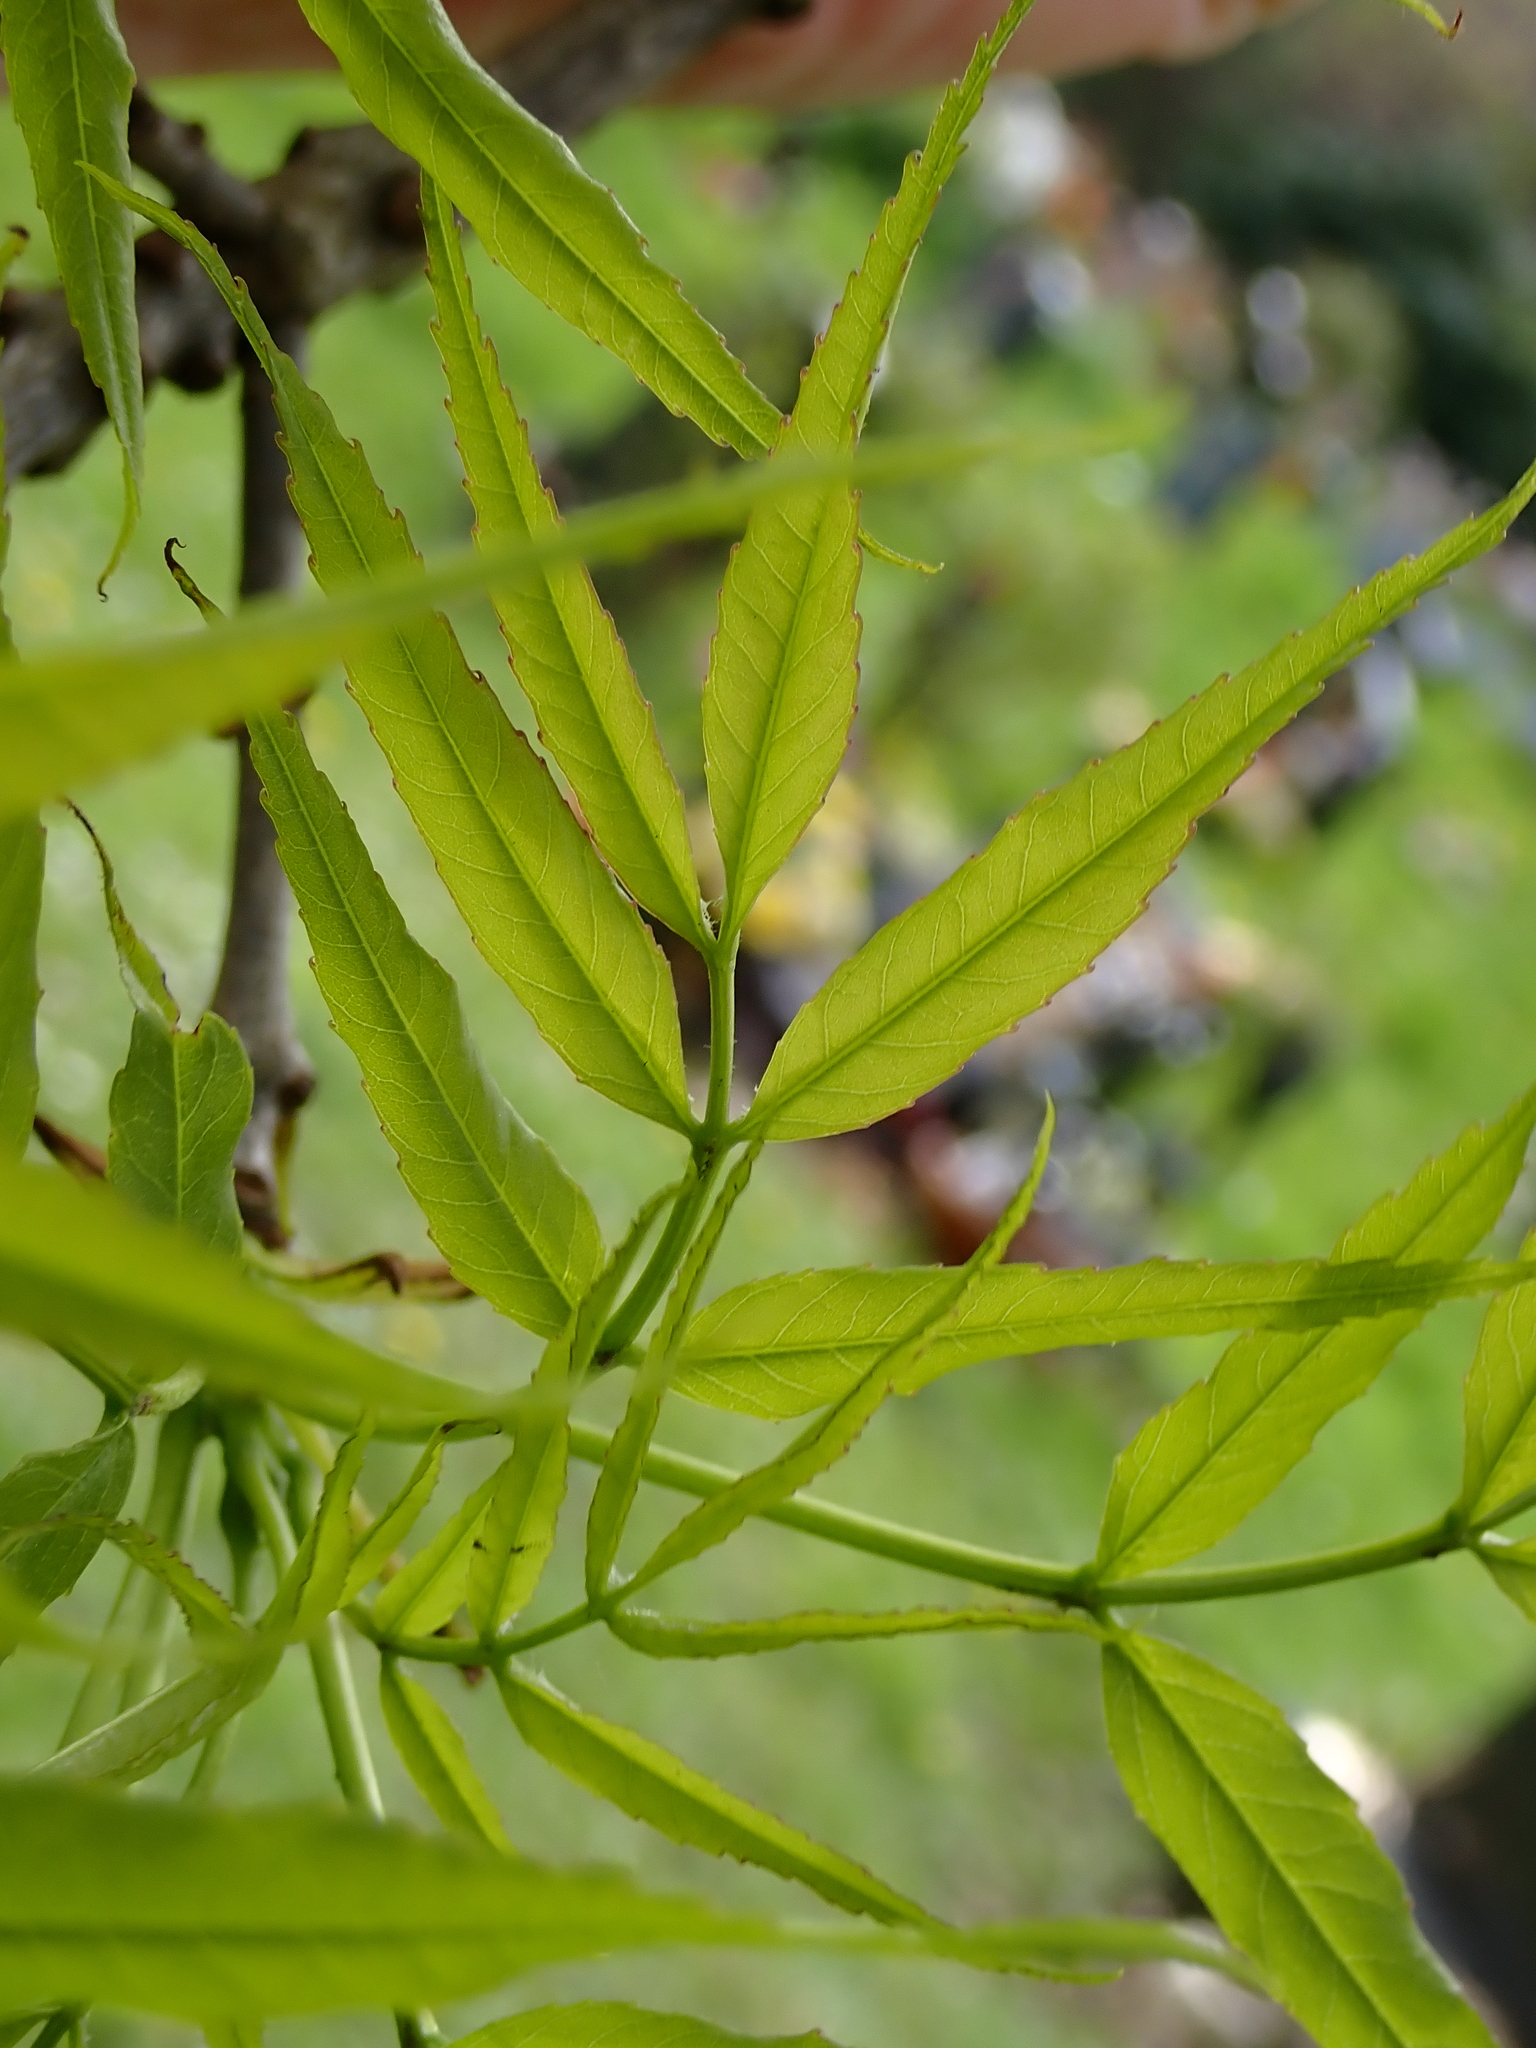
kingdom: Plantae
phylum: Tracheophyta
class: Magnoliopsida
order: Lamiales
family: Oleaceae
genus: Fraxinus
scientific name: Fraxinus angustifolia
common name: Narrow-leafed ash
